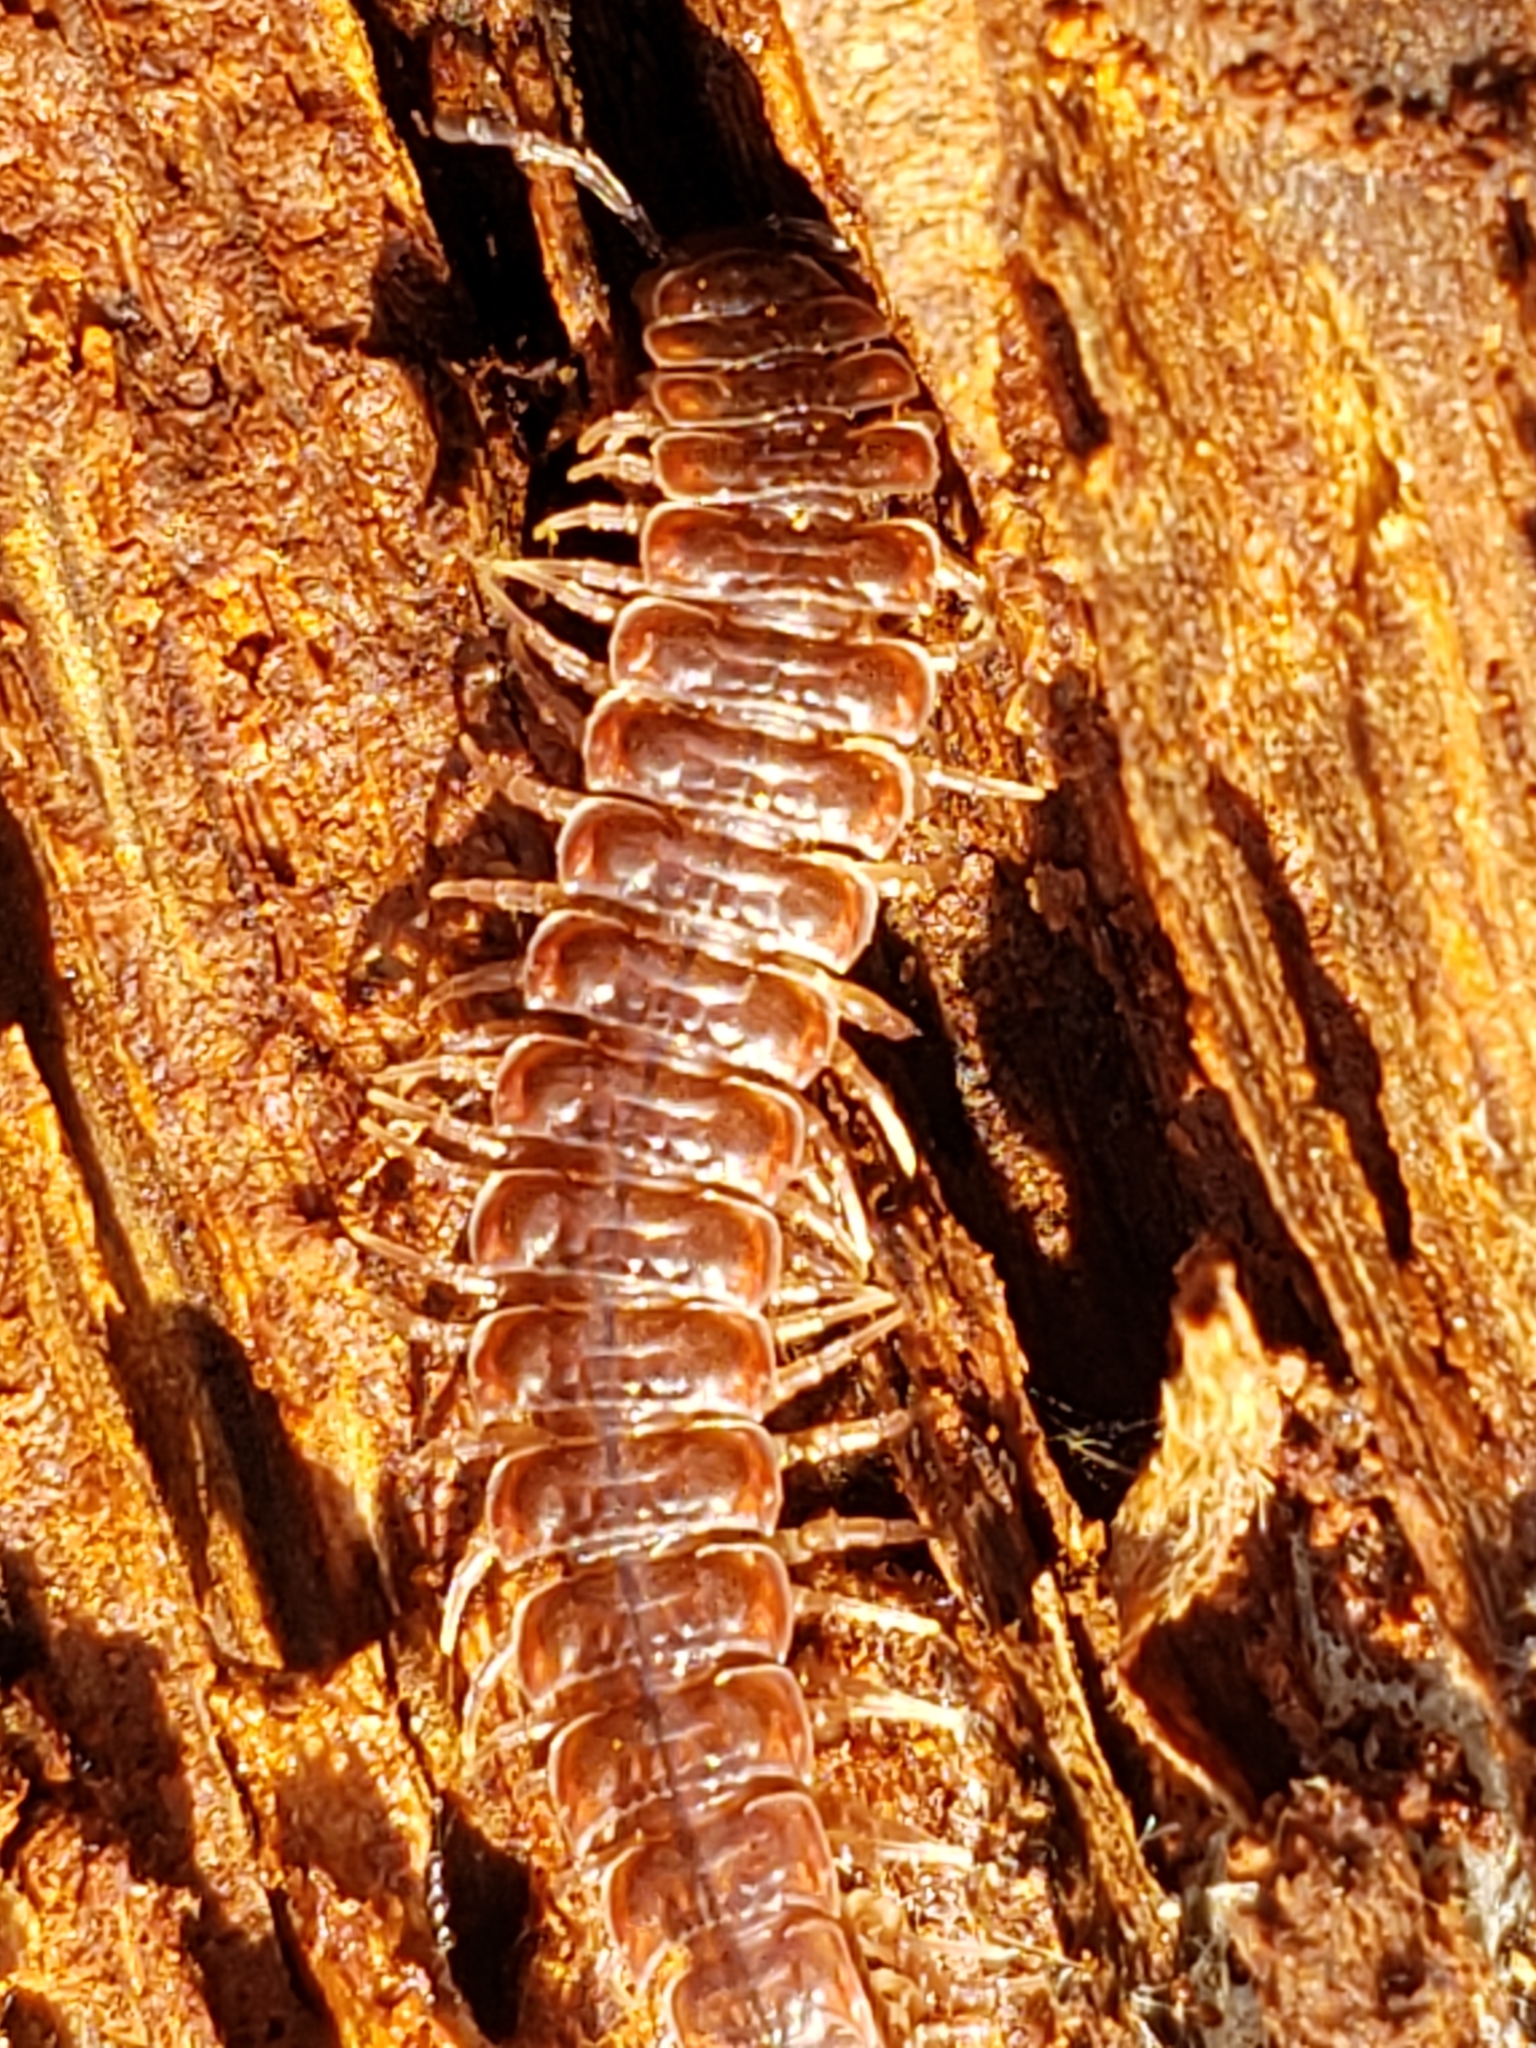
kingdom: Animalia
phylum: Arthropoda
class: Diplopoda
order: Polydesmida
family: Polydesmidae
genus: Pseudopolydesmus
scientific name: Pseudopolydesmus serratus
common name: Common pink flat-back millipede
